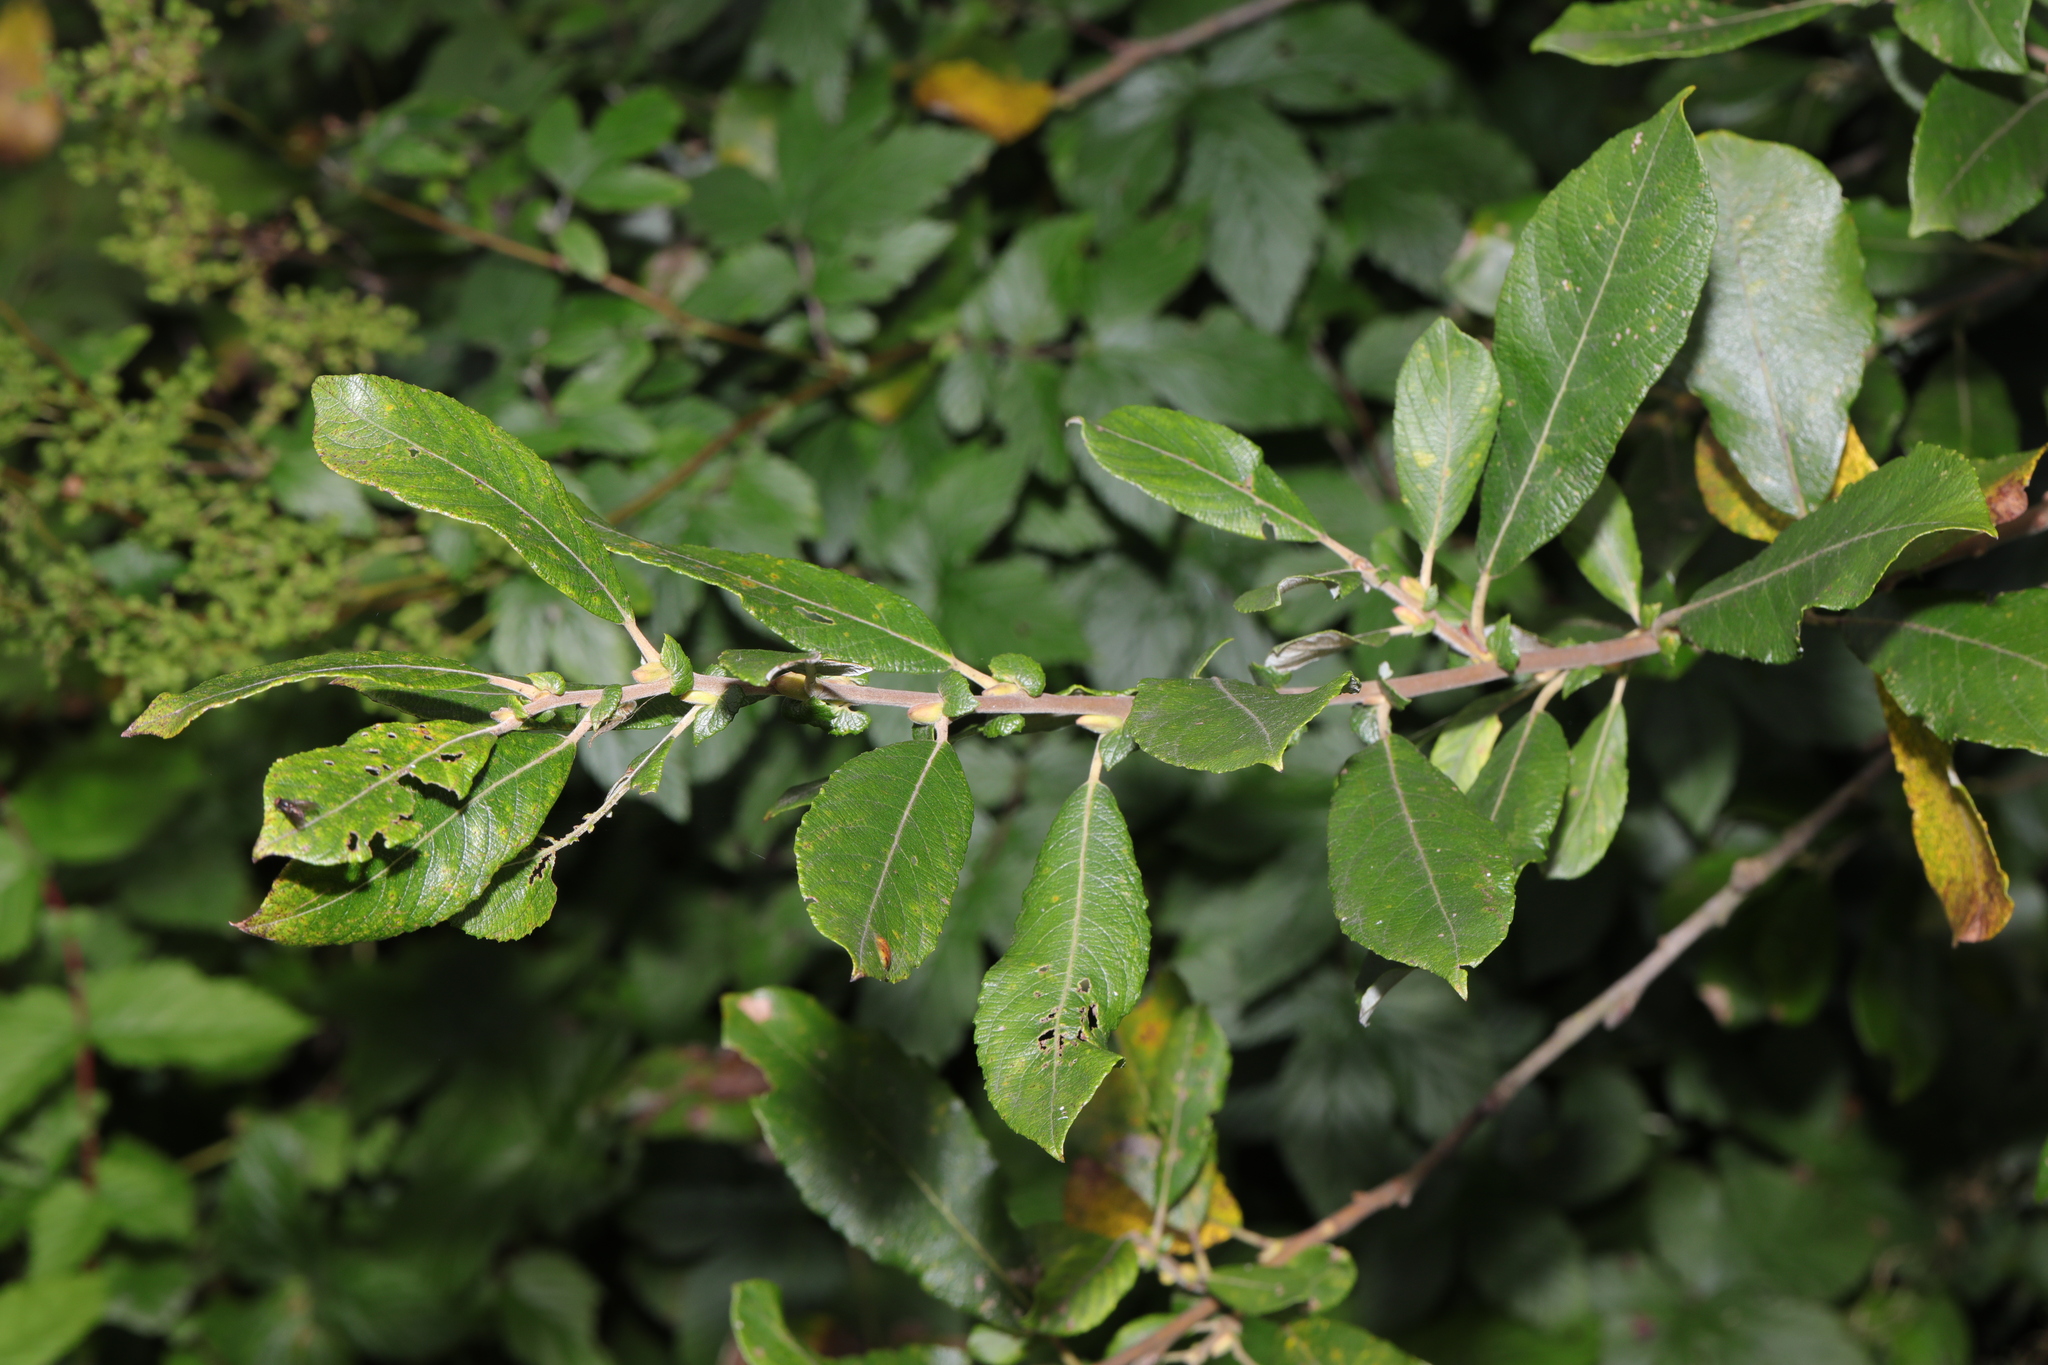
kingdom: Plantae
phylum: Tracheophyta
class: Magnoliopsida
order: Malpighiales
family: Salicaceae
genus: Salix
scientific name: Salix cinerea
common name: Common sallow
